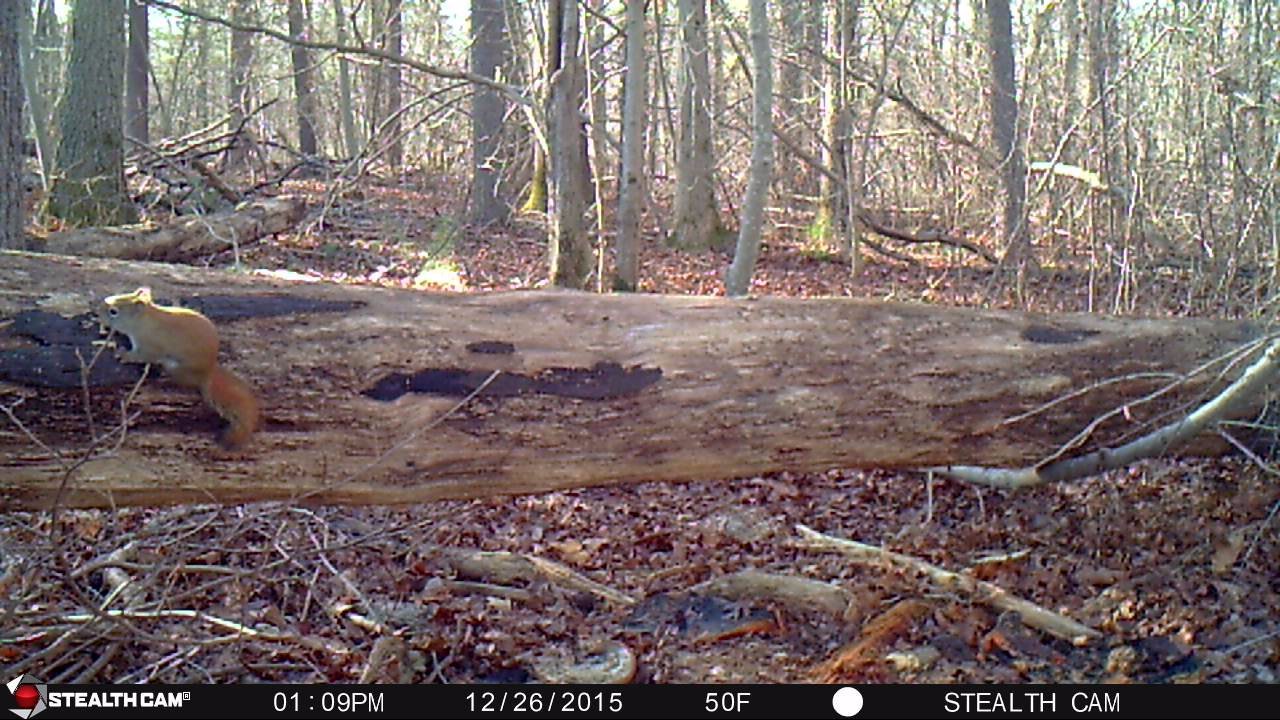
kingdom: Animalia
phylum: Chordata
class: Mammalia
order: Rodentia
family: Sciuridae
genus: Tamiasciurus
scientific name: Tamiasciurus hudsonicus
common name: Red squirrel
